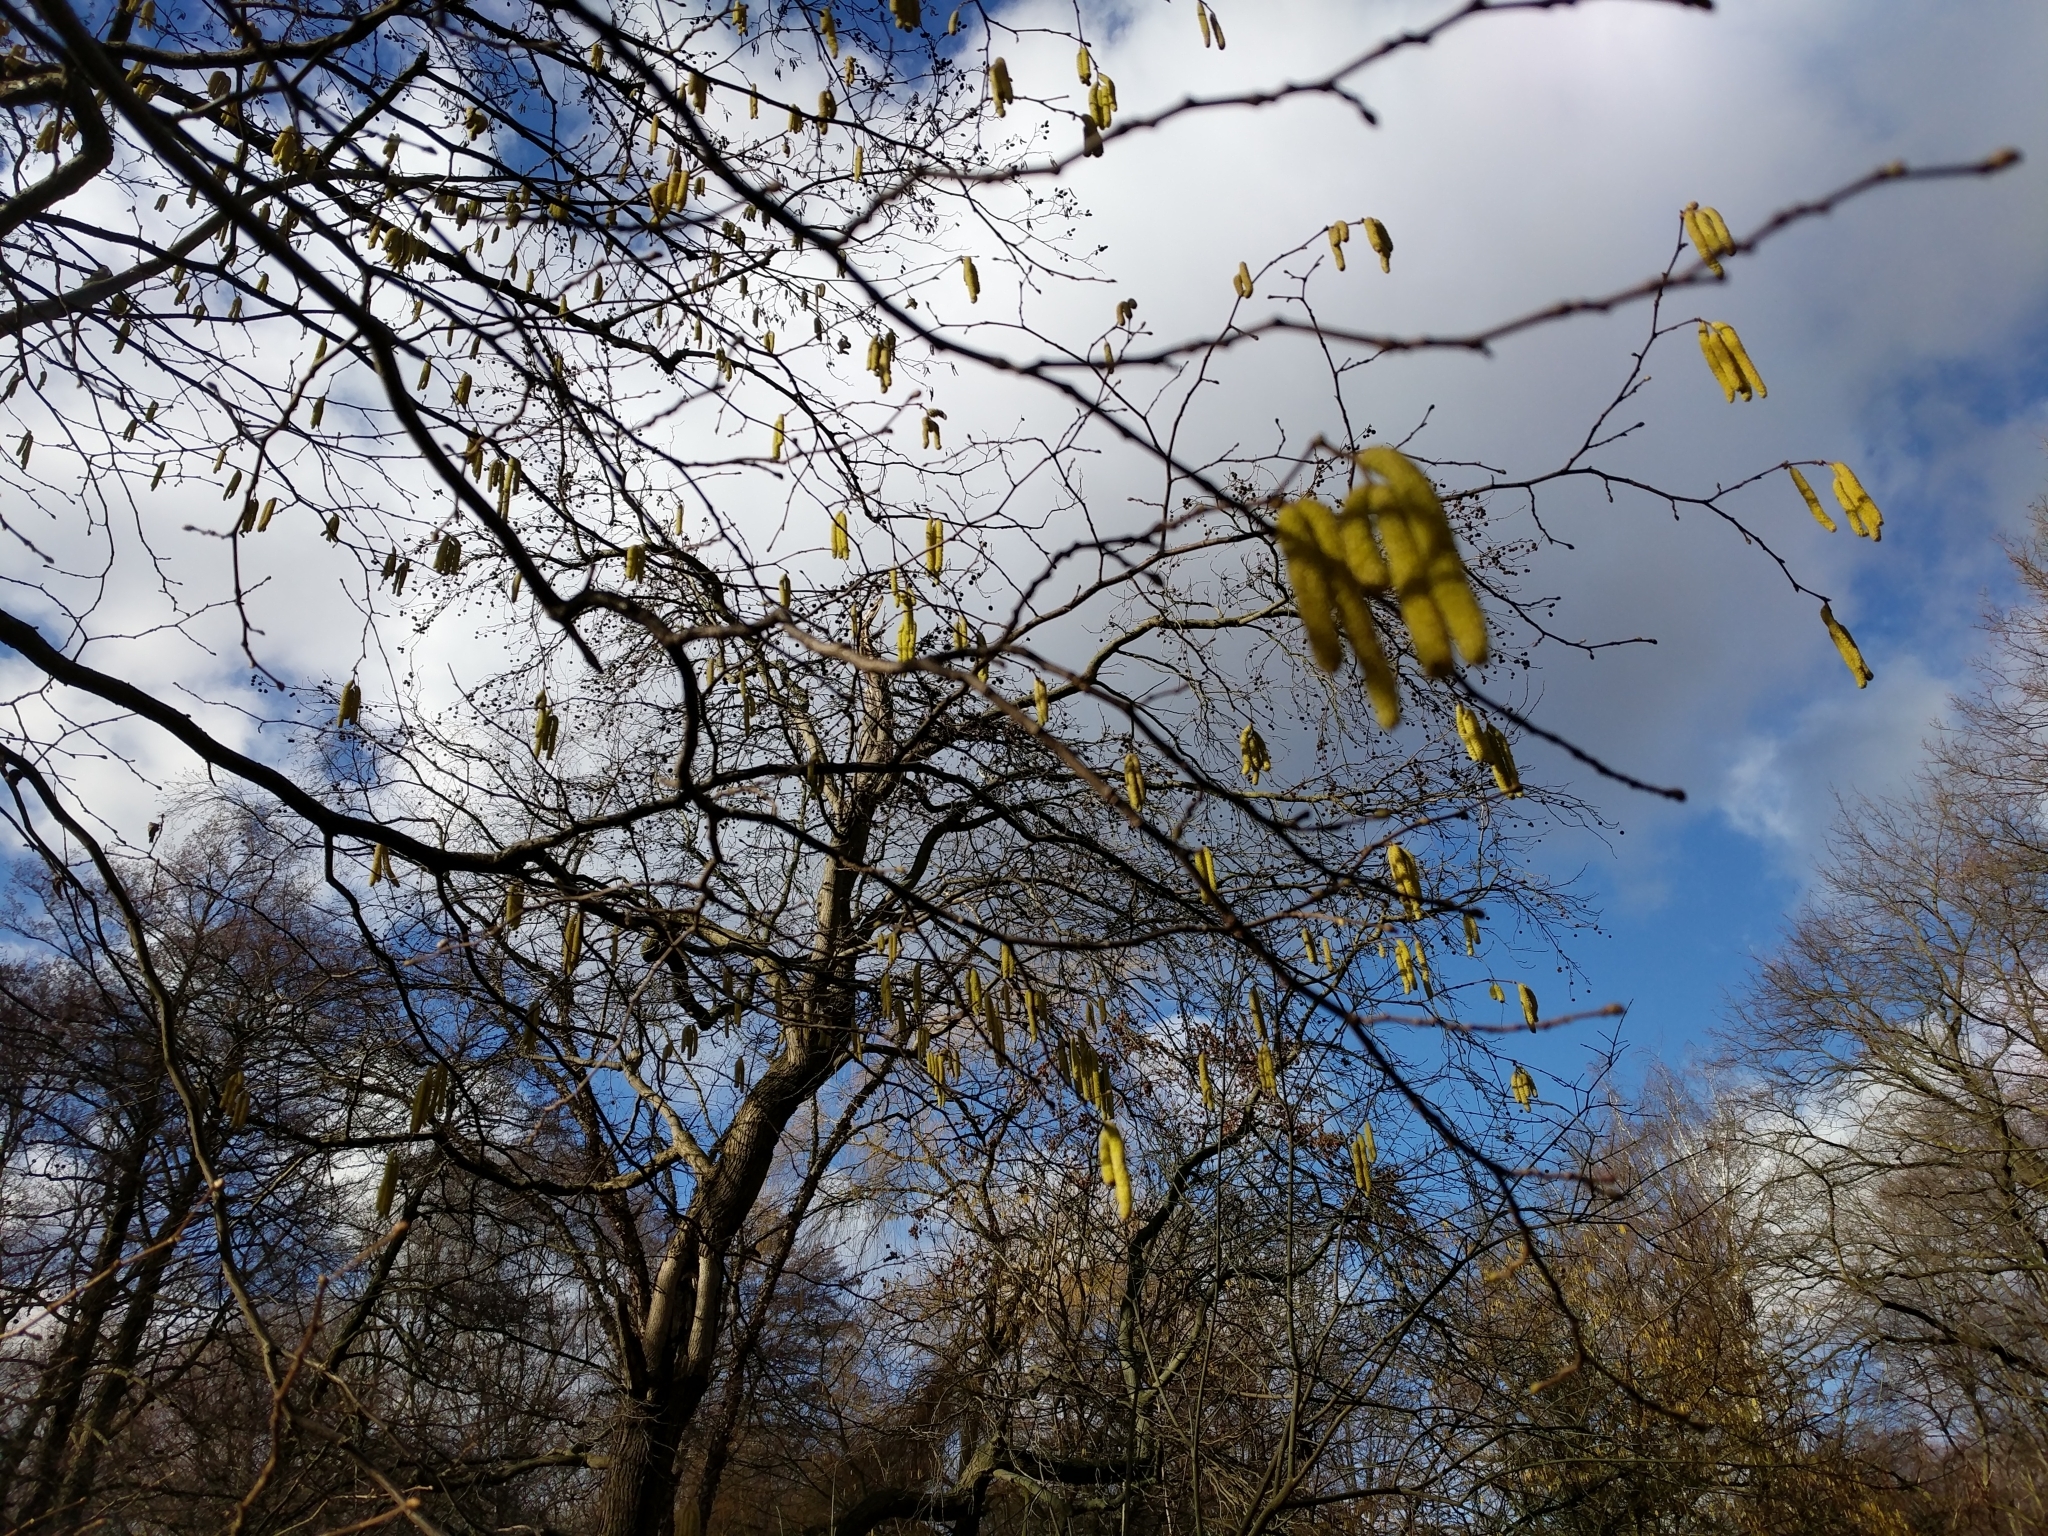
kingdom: Plantae
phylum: Tracheophyta
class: Magnoliopsida
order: Fagales
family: Betulaceae
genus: Corylus
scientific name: Corylus avellana
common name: European hazel
